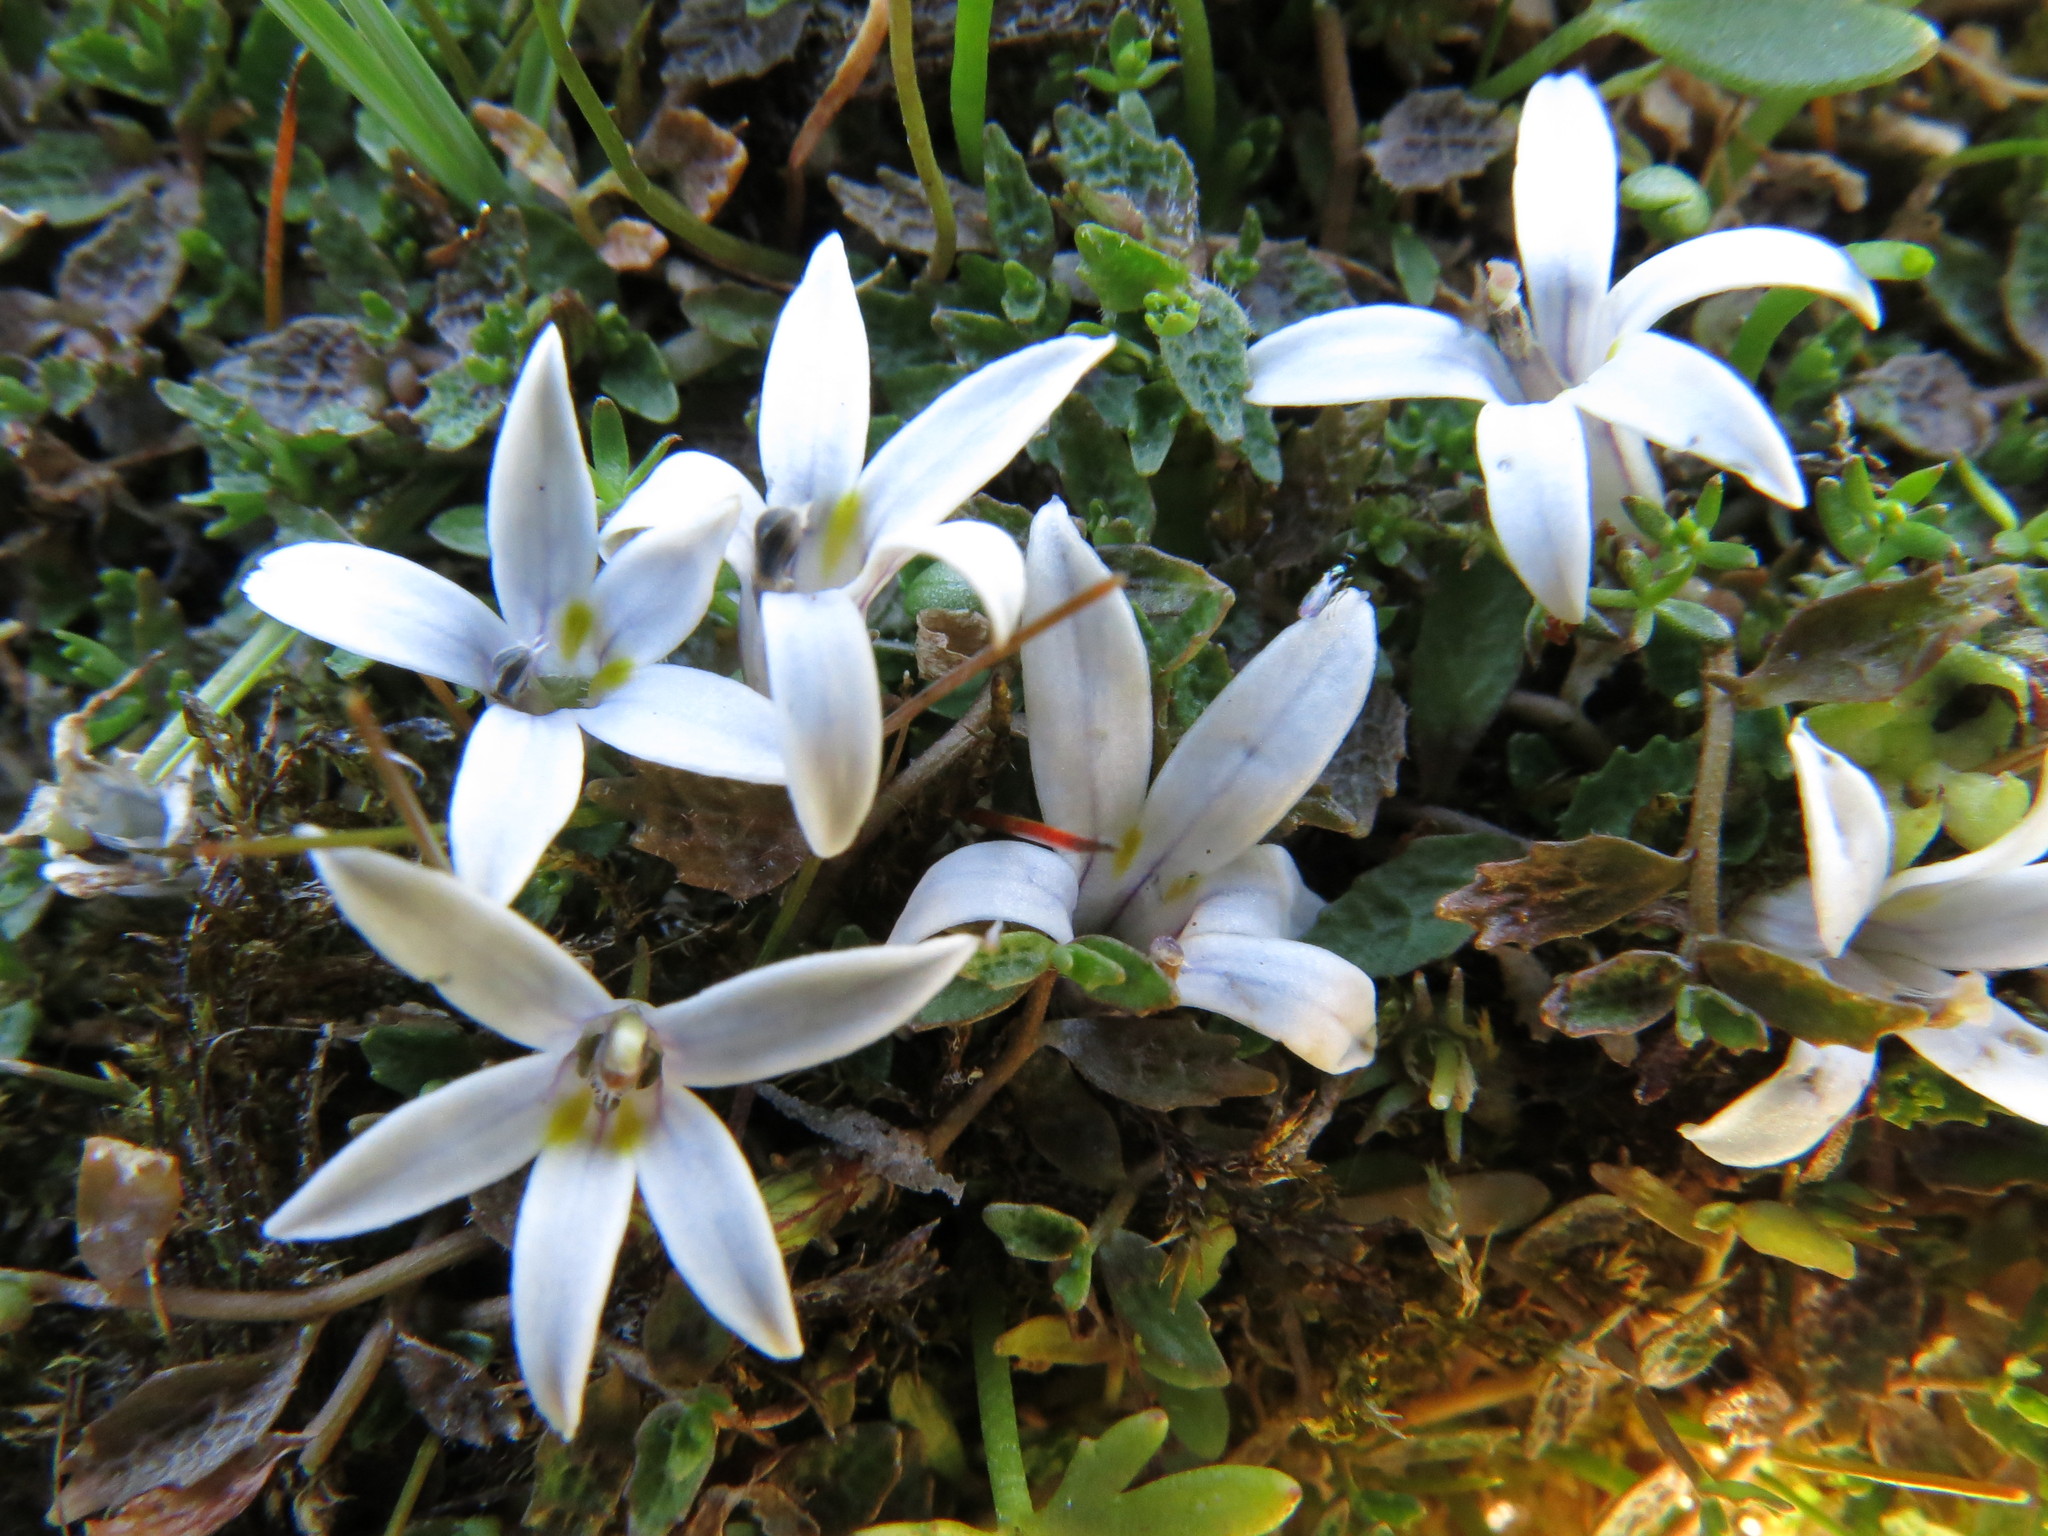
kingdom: Plantae
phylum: Tracheophyta
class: Magnoliopsida
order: Asterales
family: Campanulaceae
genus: Lobelia
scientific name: Lobelia perpusilla
